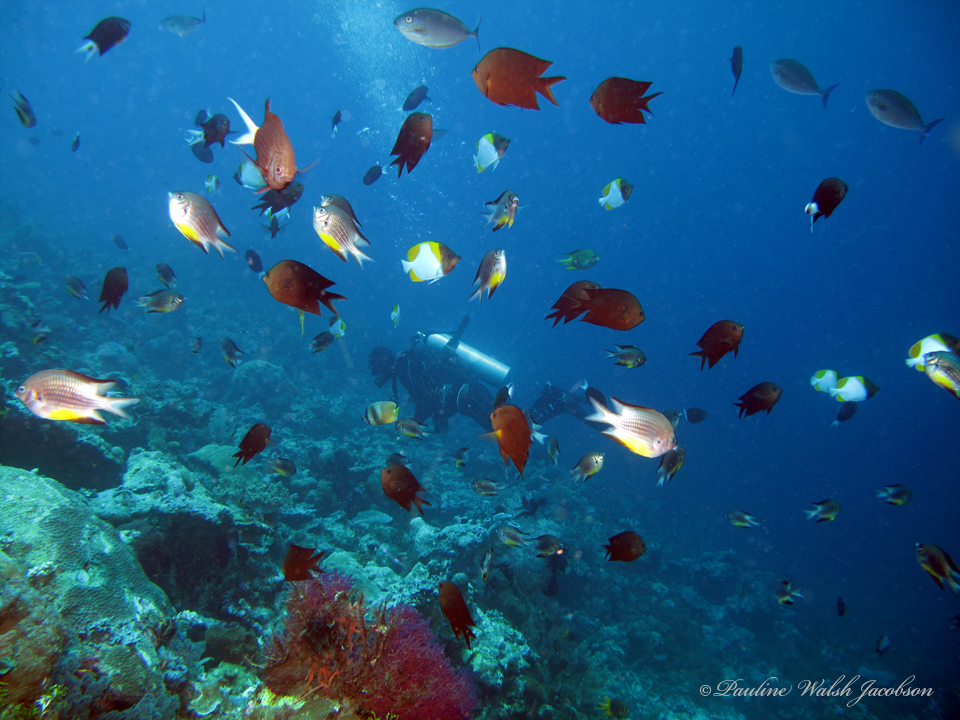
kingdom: Animalia
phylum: Chordata
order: Perciformes
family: Pomacentridae
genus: Amblyglyphidodon
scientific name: Amblyglyphidodon leucogaster
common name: White-belly damsel
